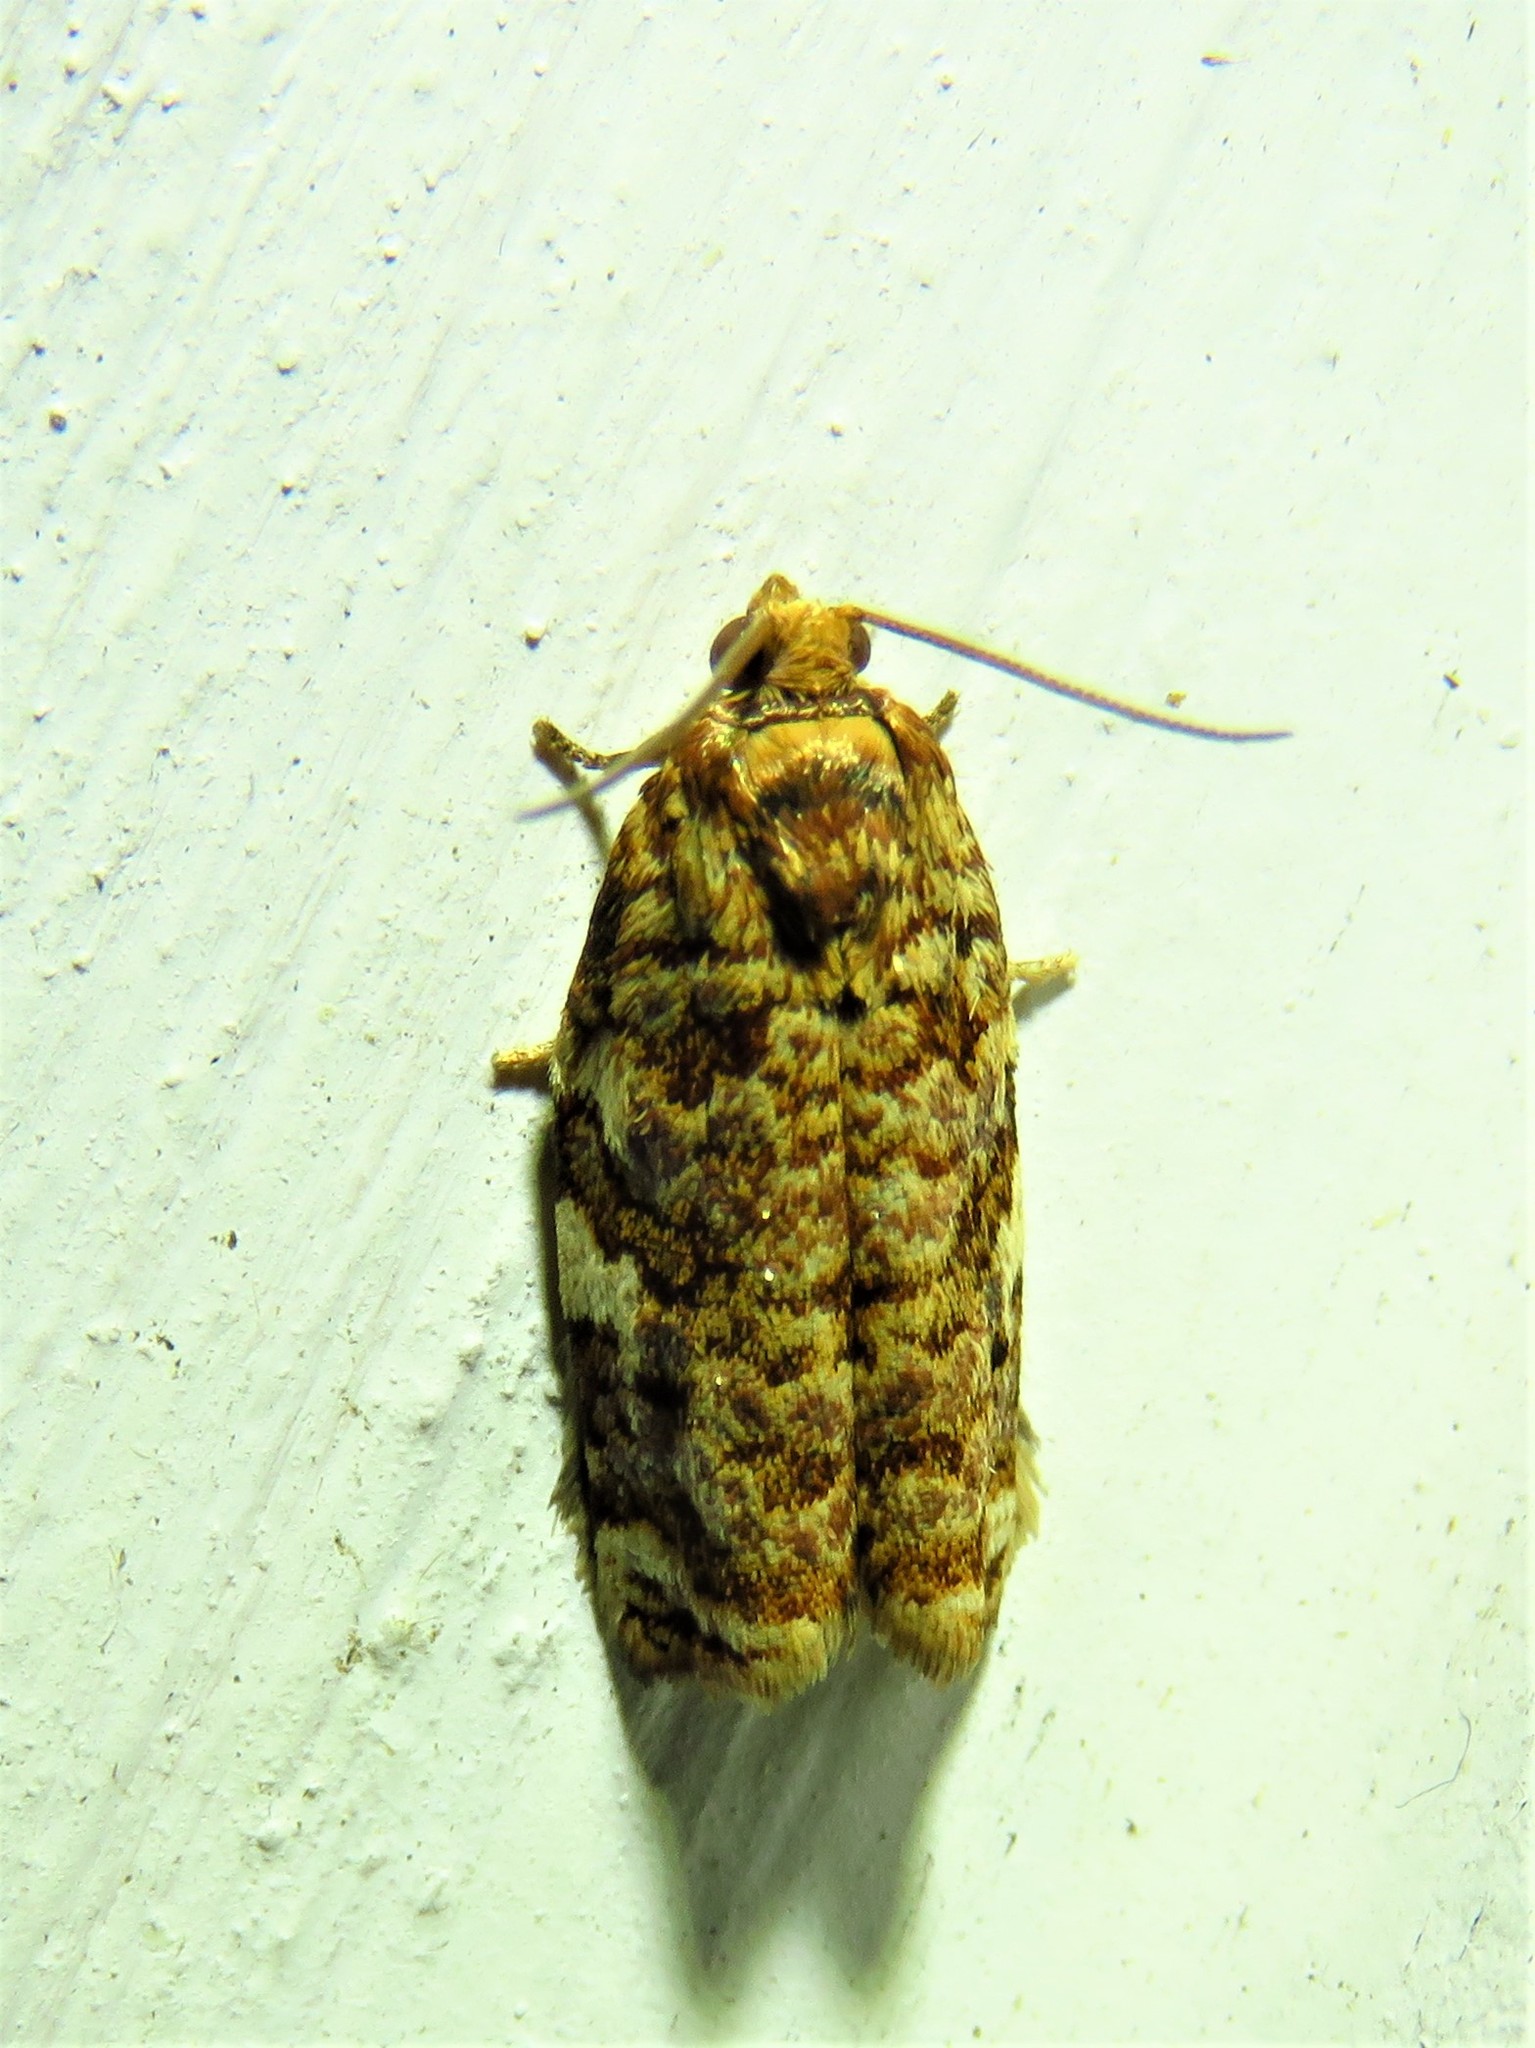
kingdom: Animalia
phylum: Arthropoda
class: Insecta
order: Lepidoptera
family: Tortricidae
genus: Archips
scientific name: Archips argyrospila
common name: Fruit-tree leafroller moth
